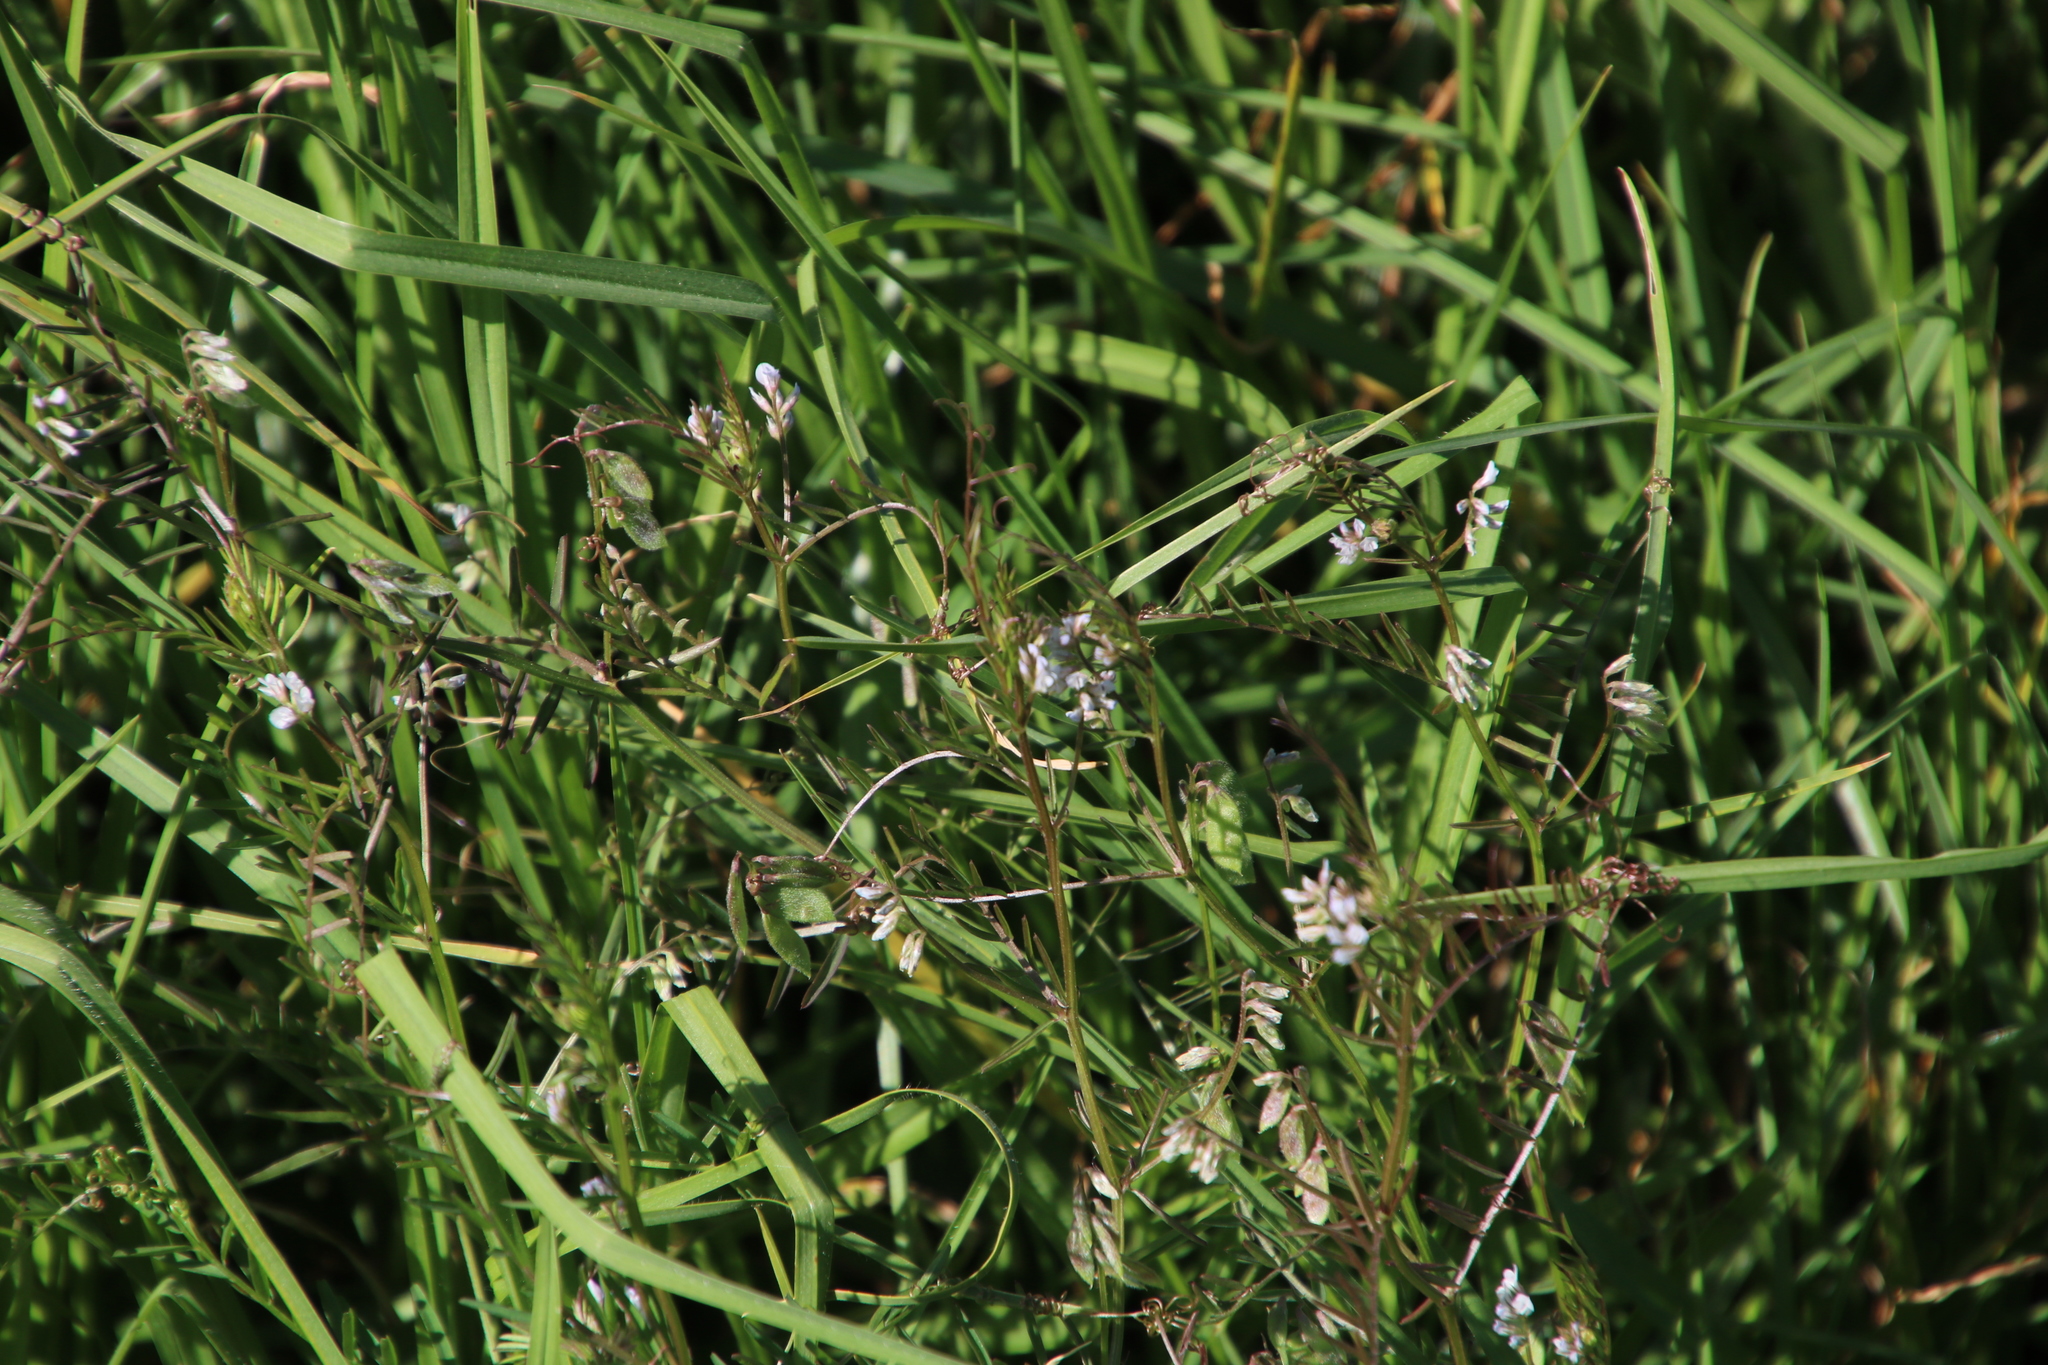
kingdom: Plantae
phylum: Tracheophyta
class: Magnoliopsida
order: Fabales
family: Fabaceae
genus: Vicia
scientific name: Vicia hirsuta
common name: Tiny vetch
